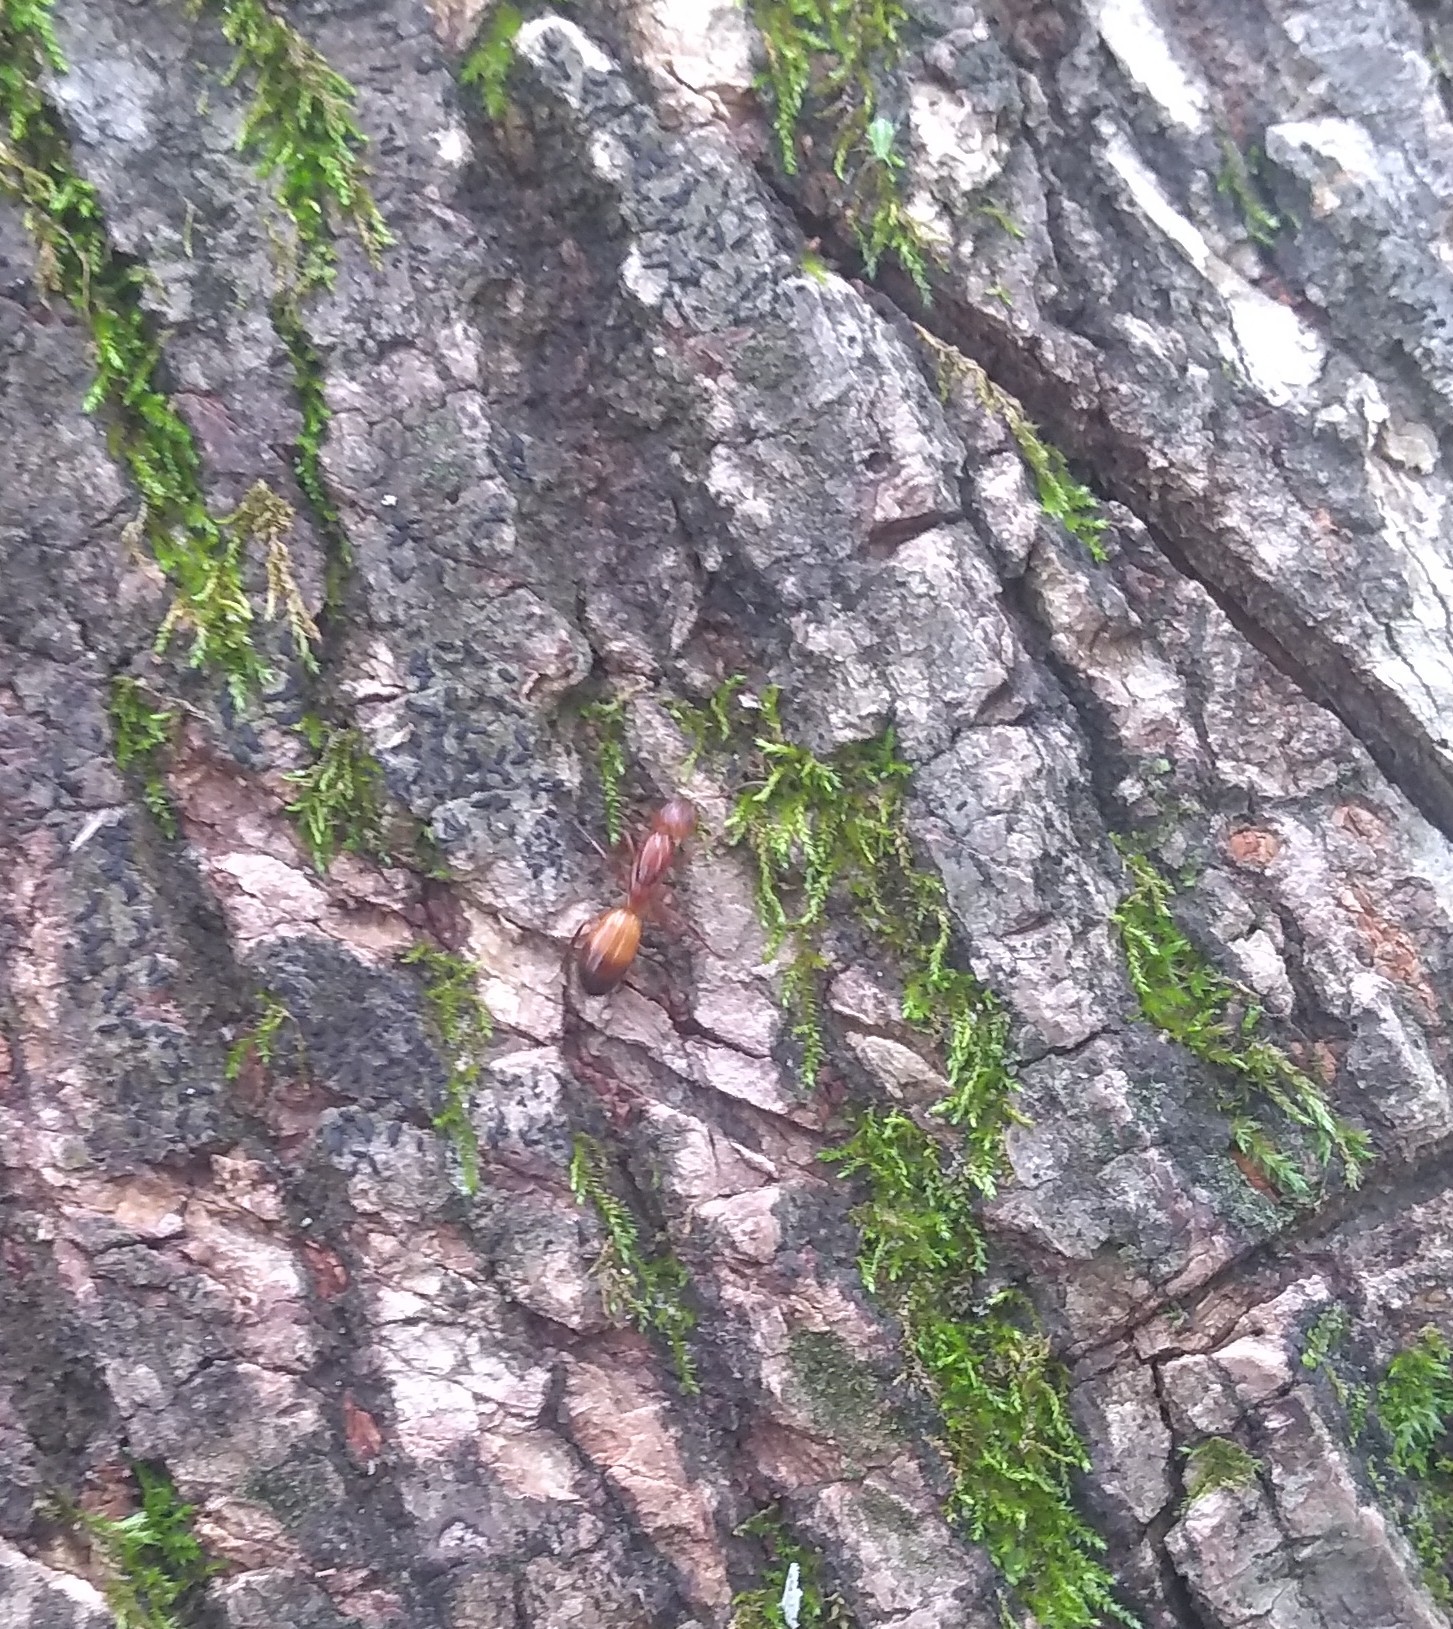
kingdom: Animalia
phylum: Arthropoda
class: Insecta
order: Hymenoptera
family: Formicidae
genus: Camponotus
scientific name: Camponotus snellingi
